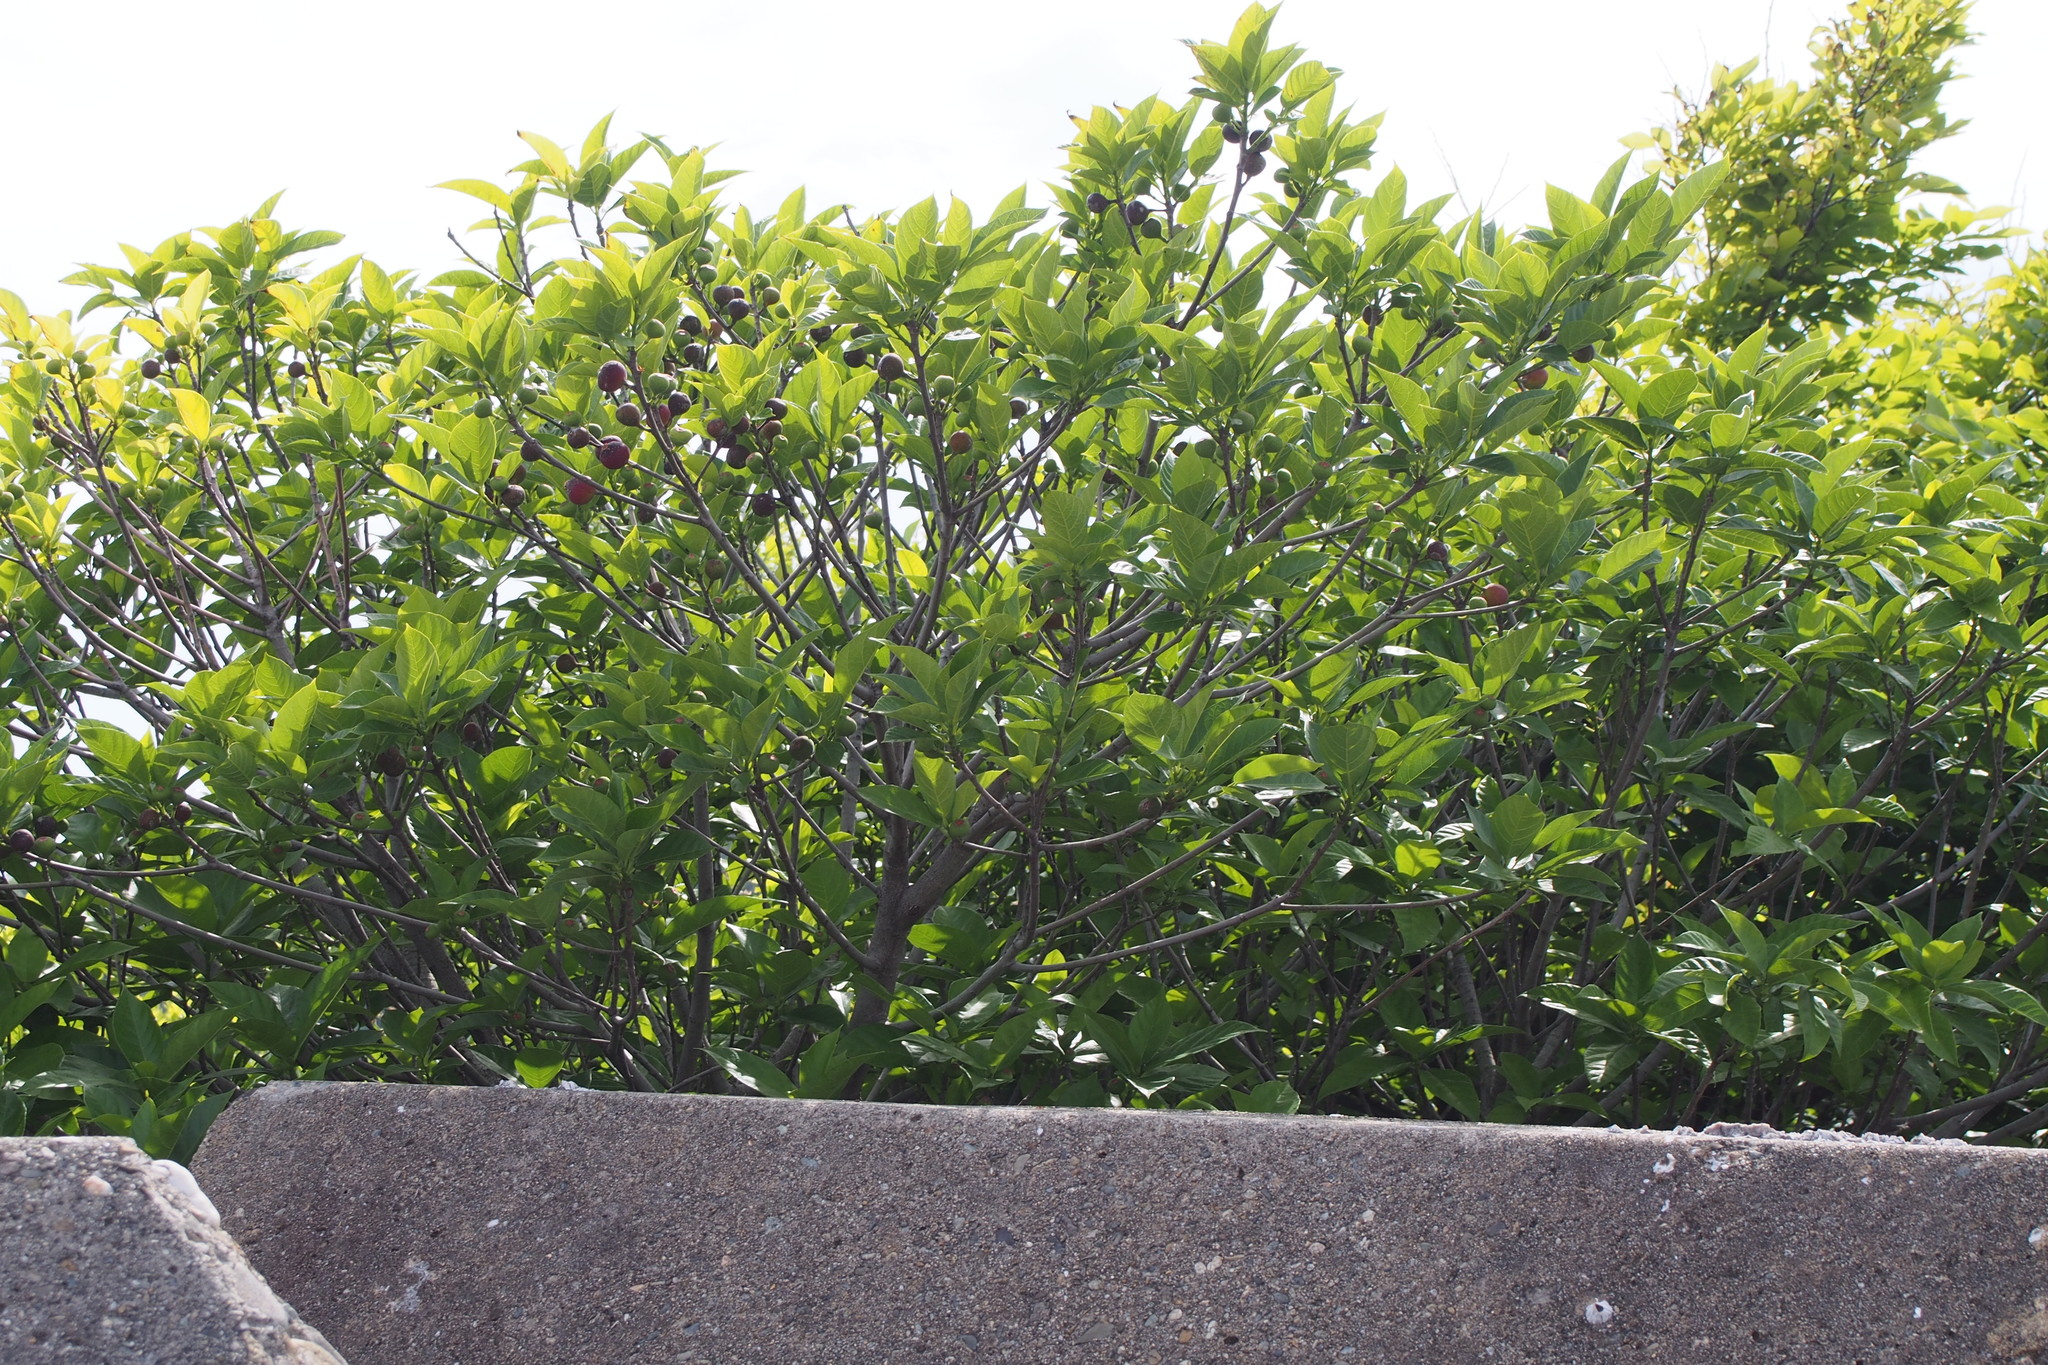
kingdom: Plantae
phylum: Tracheophyta
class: Magnoliopsida
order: Rosales
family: Moraceae
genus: Ficus
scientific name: Ficus erecta
